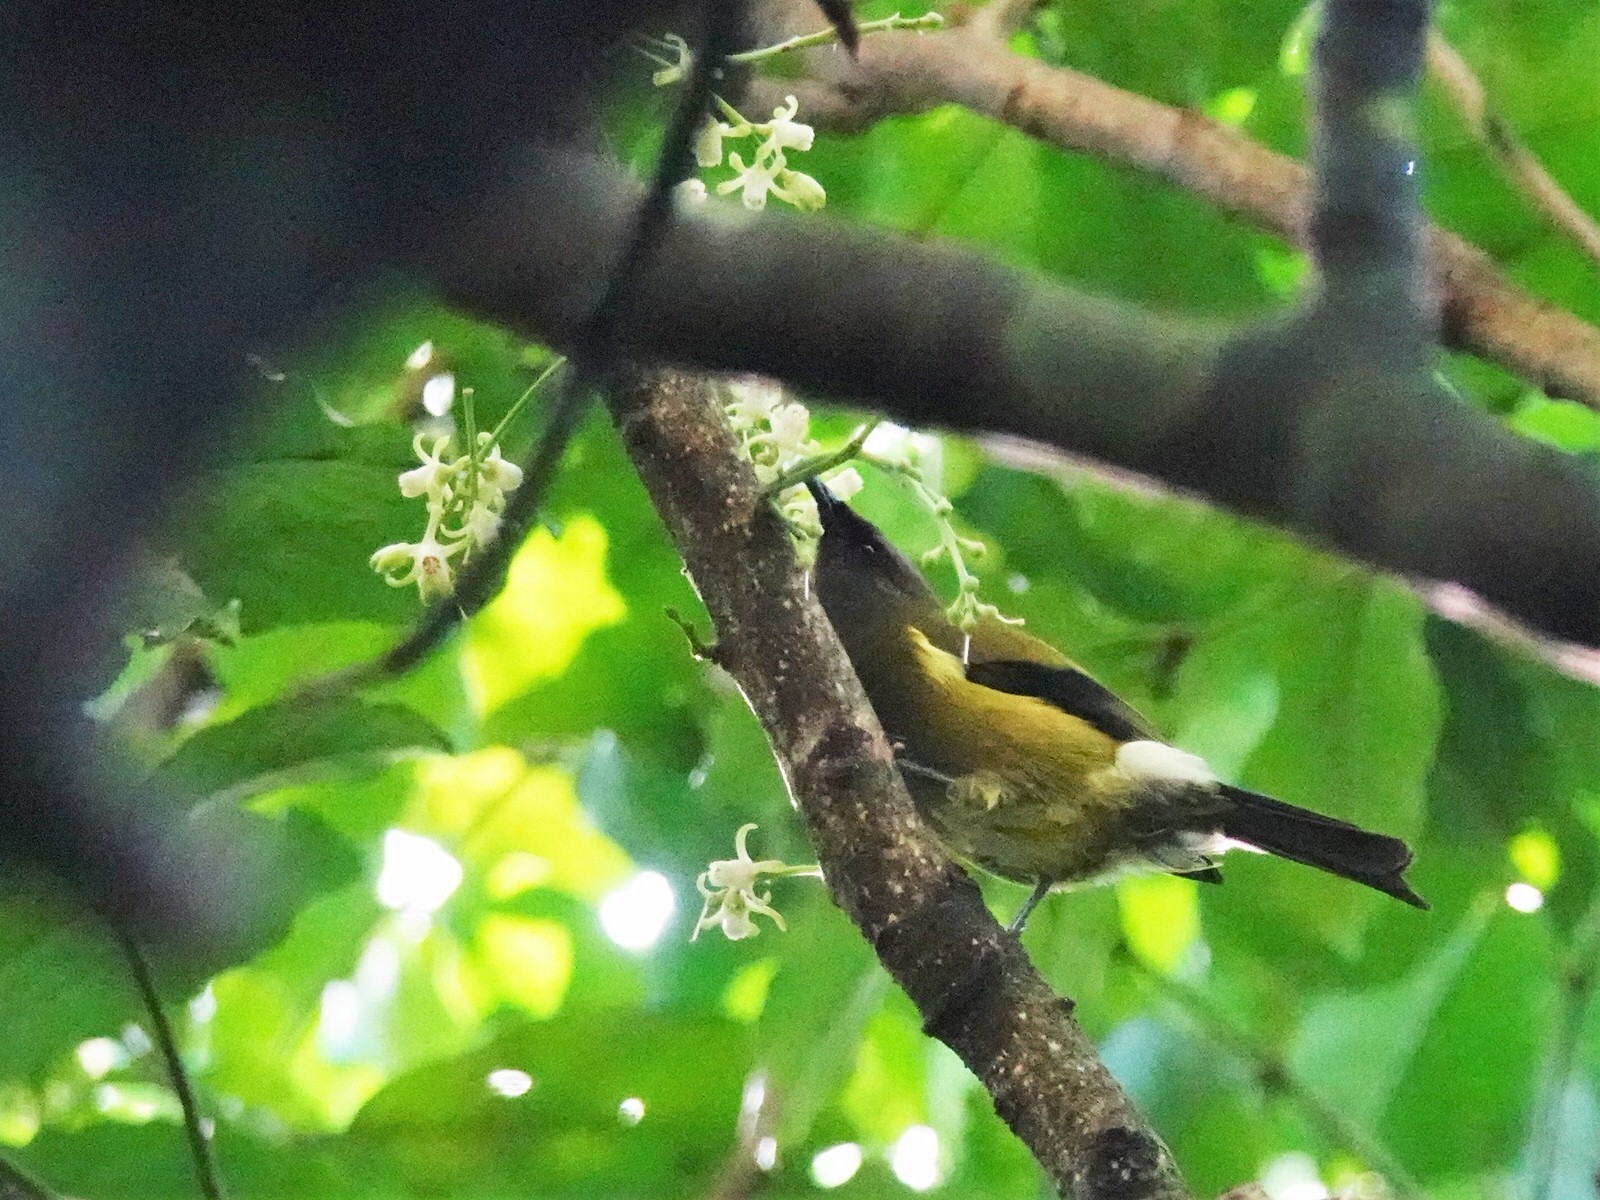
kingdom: Animalia
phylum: Chordata
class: Aves
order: Passeriformes
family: Meliphagidae
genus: Anthornis
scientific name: Anthornis melanura
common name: New zealand bellbird
